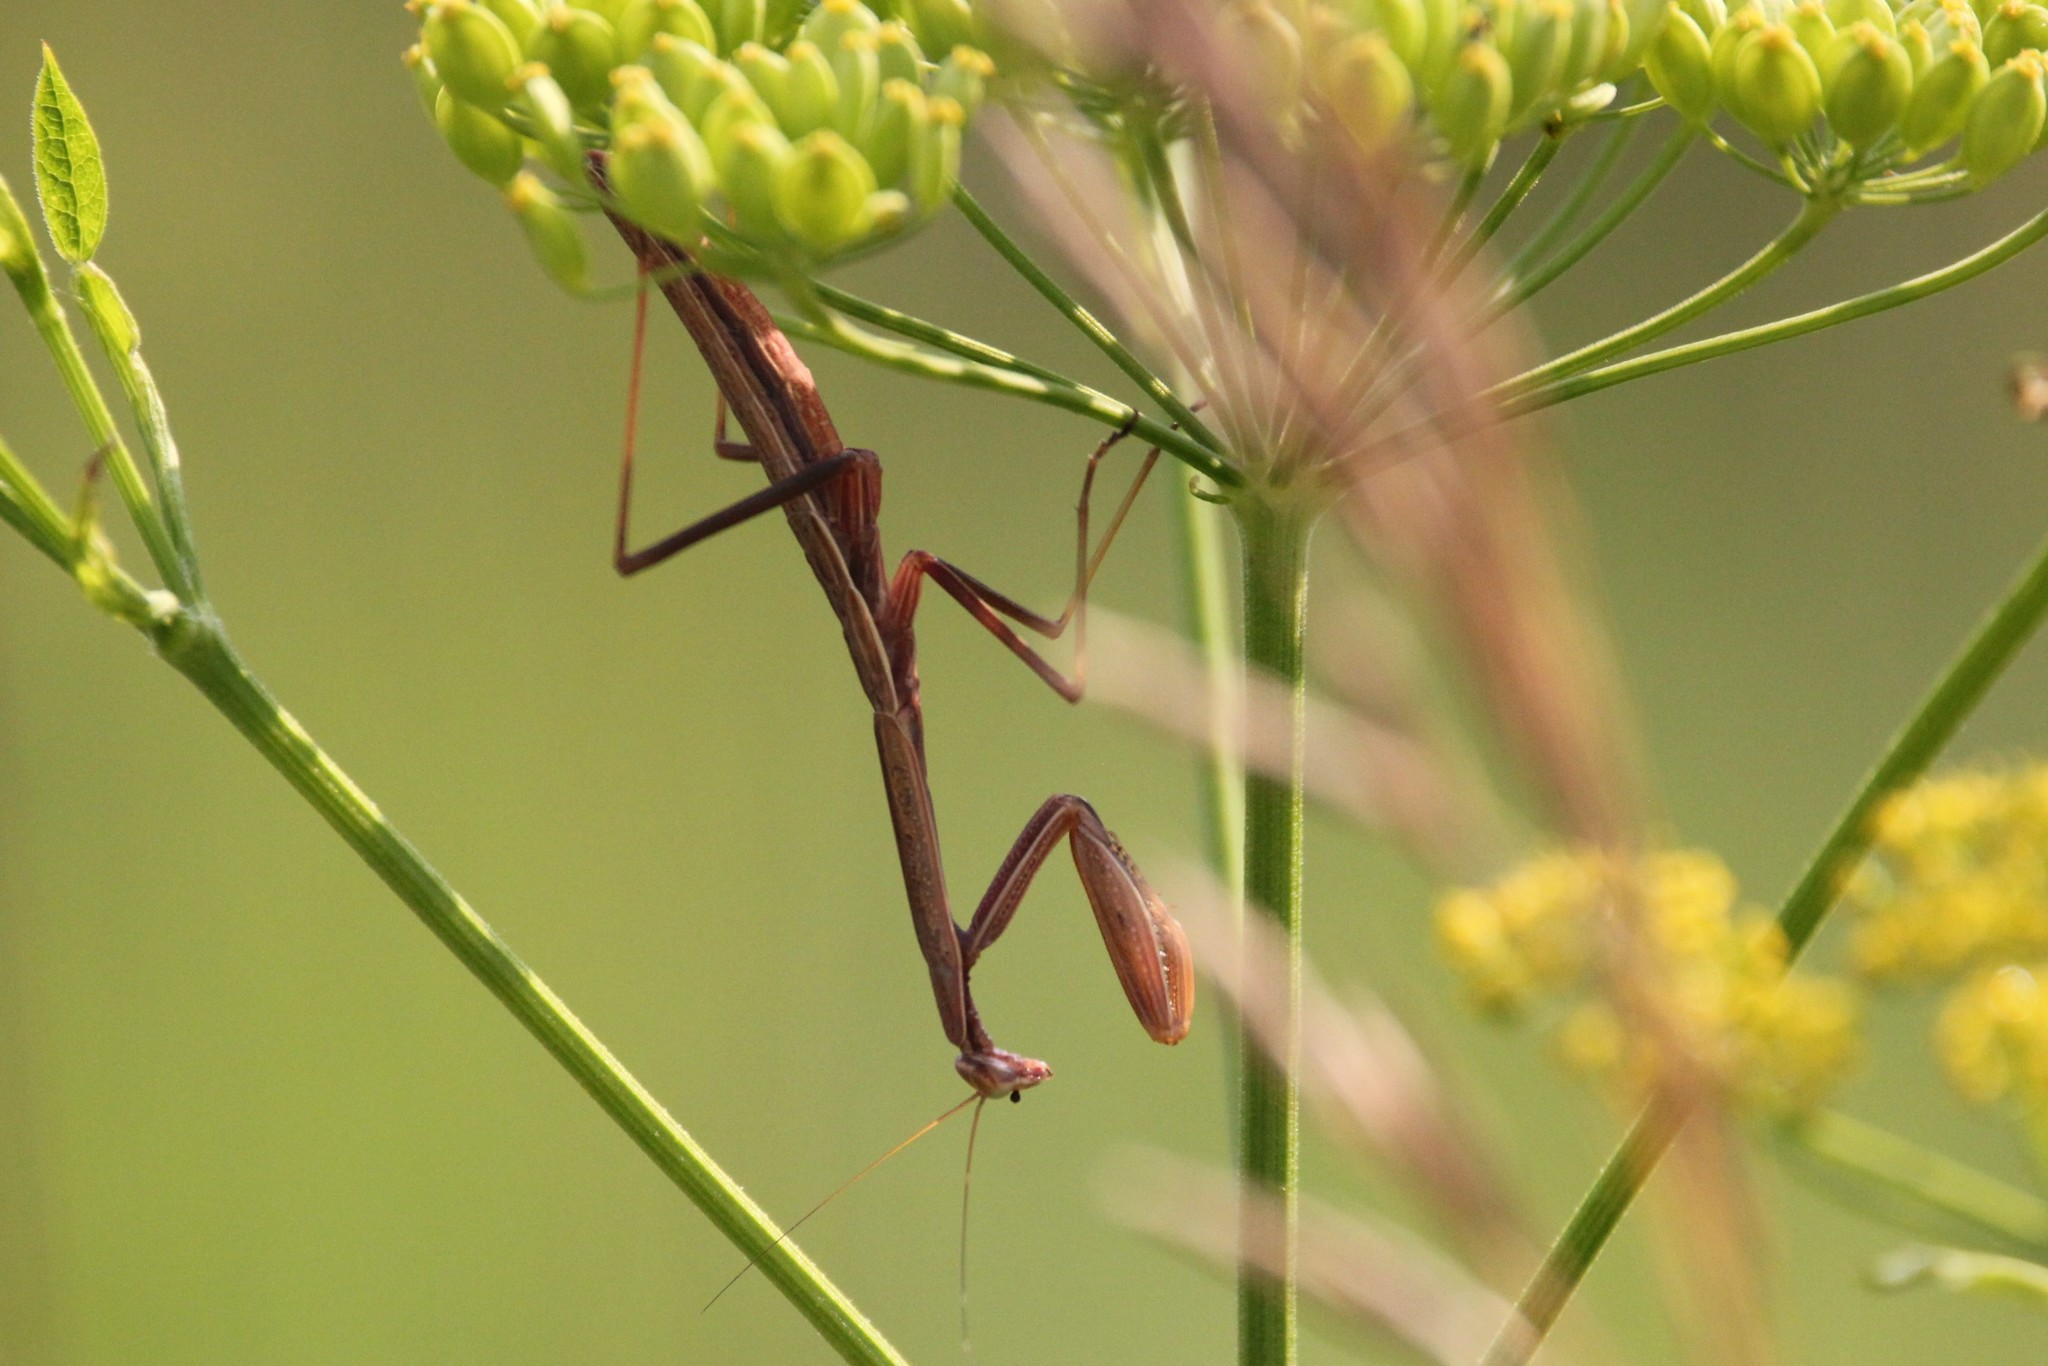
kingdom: Animalia
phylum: Arthropoda
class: Insecta
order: Mantodea
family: Mantidae
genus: Tenodera
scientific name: Tenodera sinensis
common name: Chinese mantis
